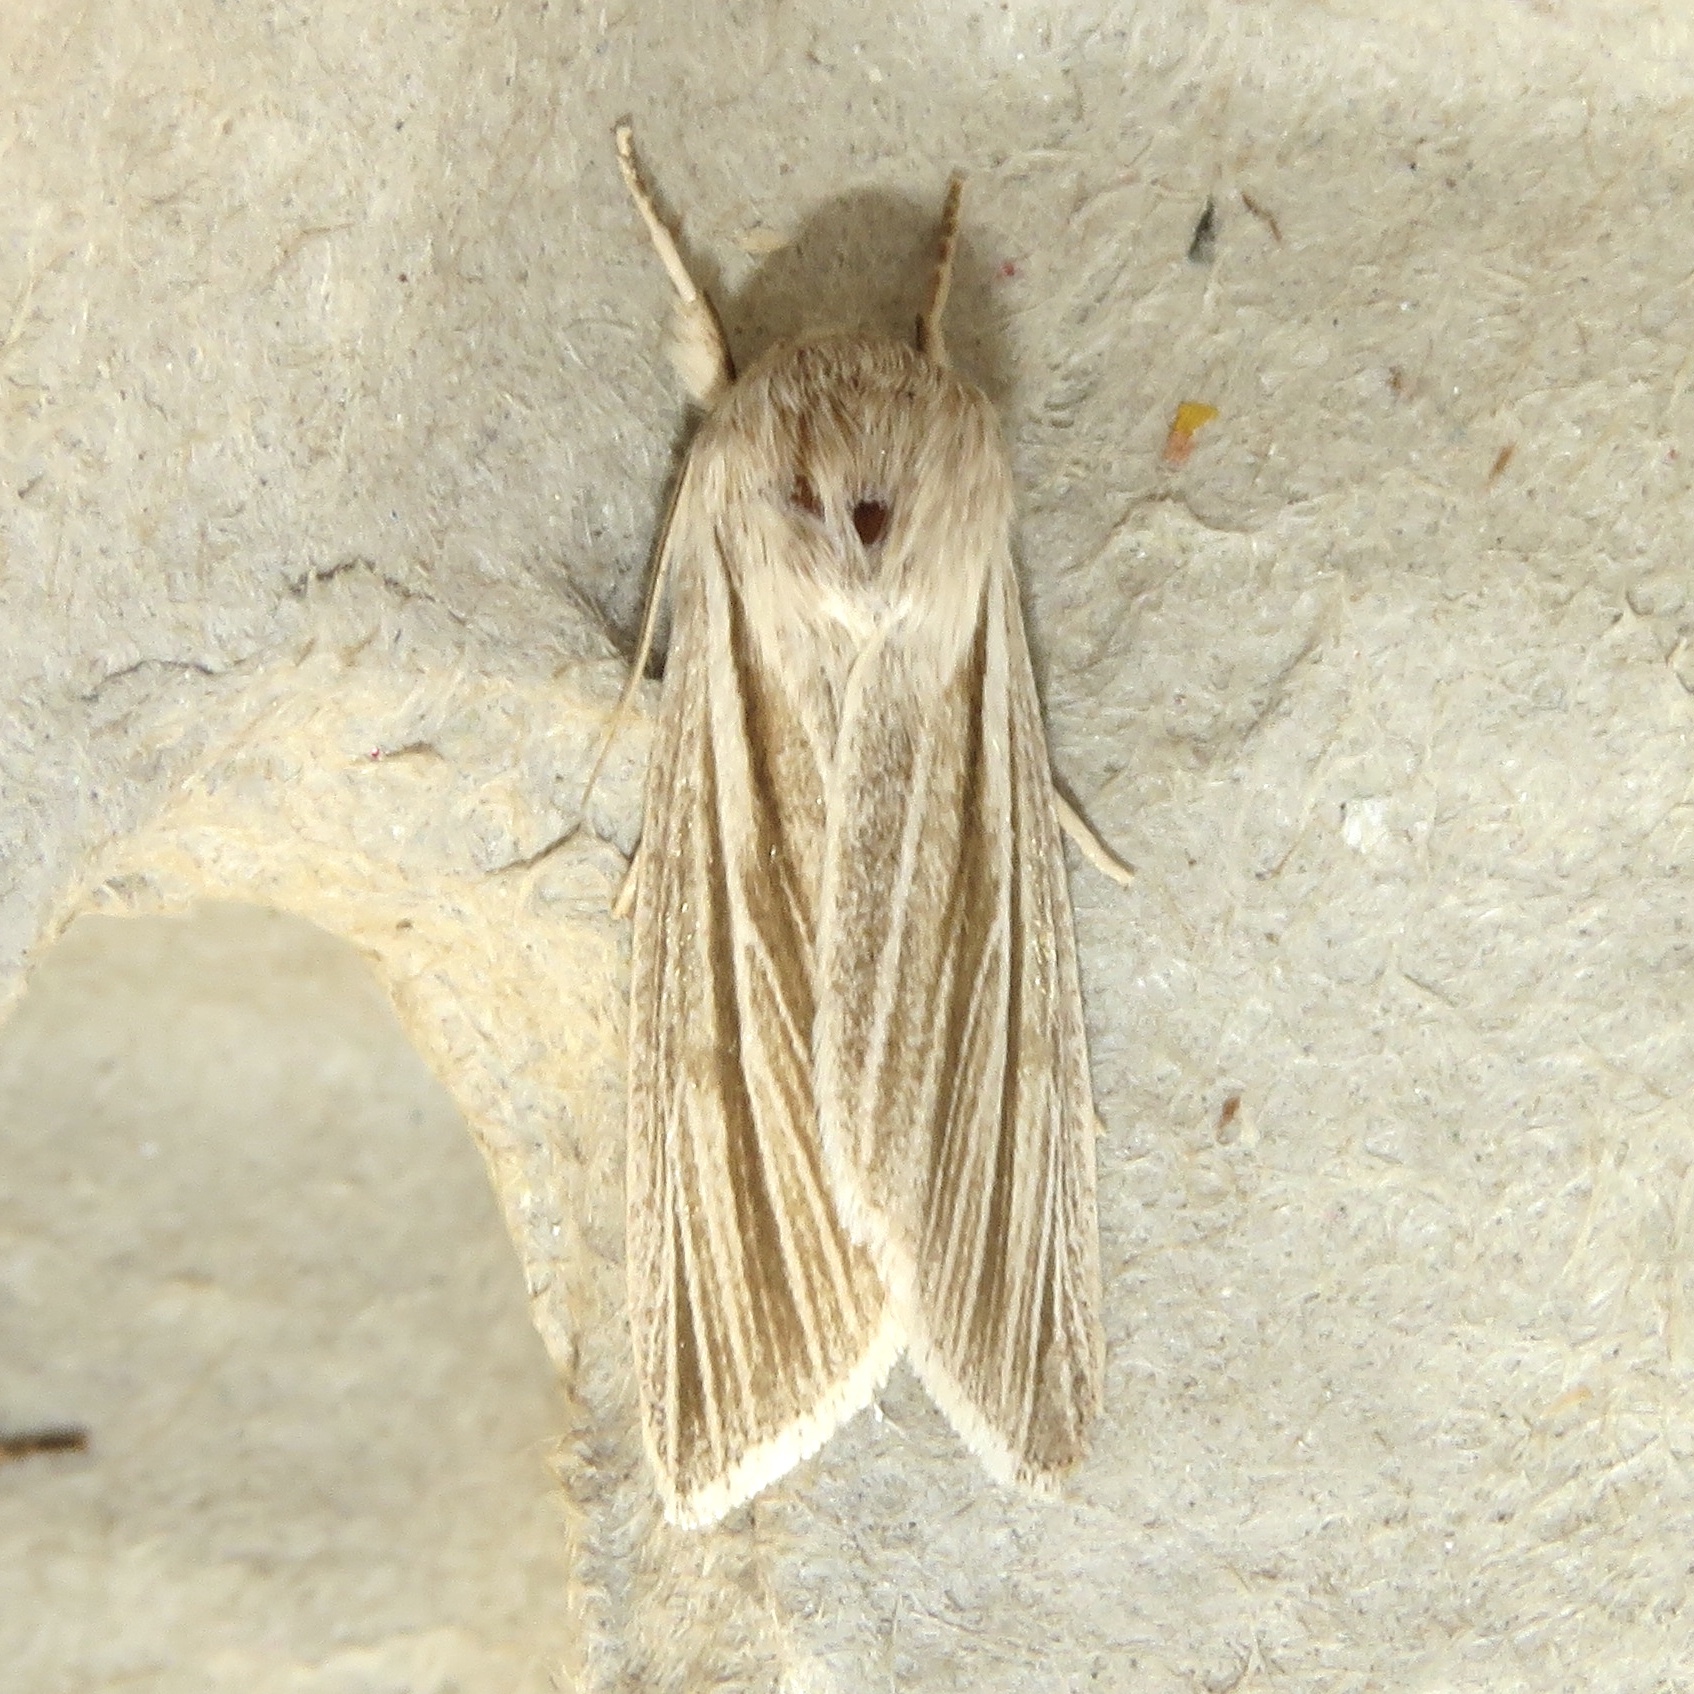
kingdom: Animalia
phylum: Arthropoda
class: Insecta
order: Lepidoptera
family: Noctuidae
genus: Acronicta
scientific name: Acronicta insularis
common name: Henry's marsh moth
